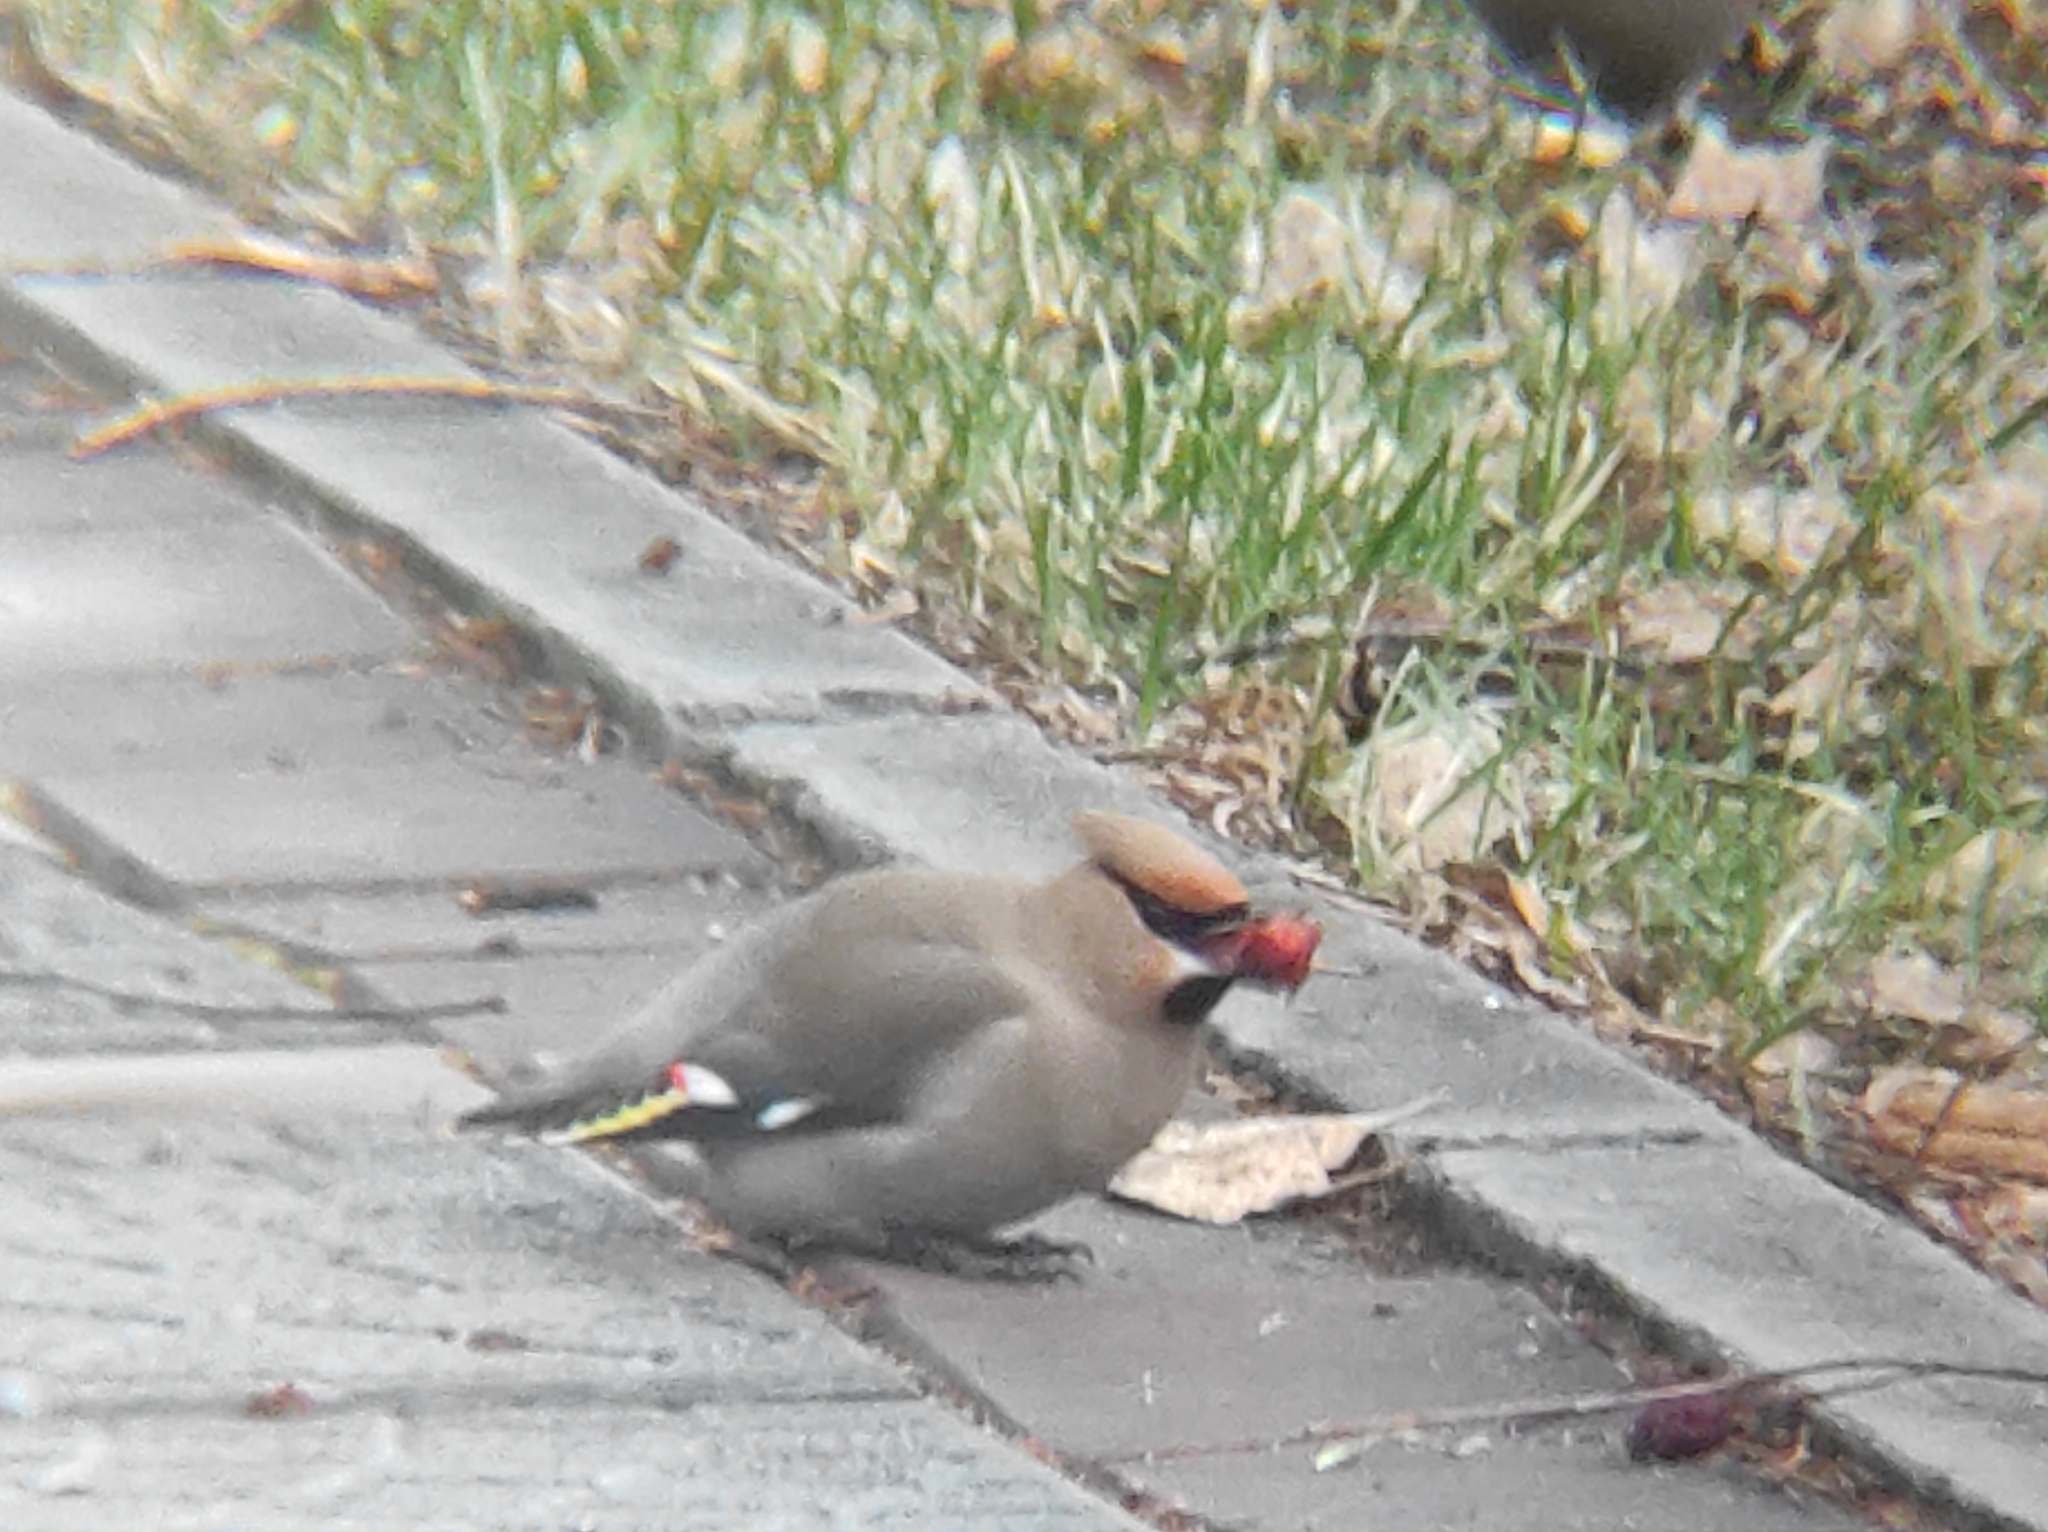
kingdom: Animalia
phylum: Chordata
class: Aves
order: Passeriformes
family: Bombycillidae
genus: Bombycilla
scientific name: Bombycilla garrulus
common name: Bohemian waxwing
